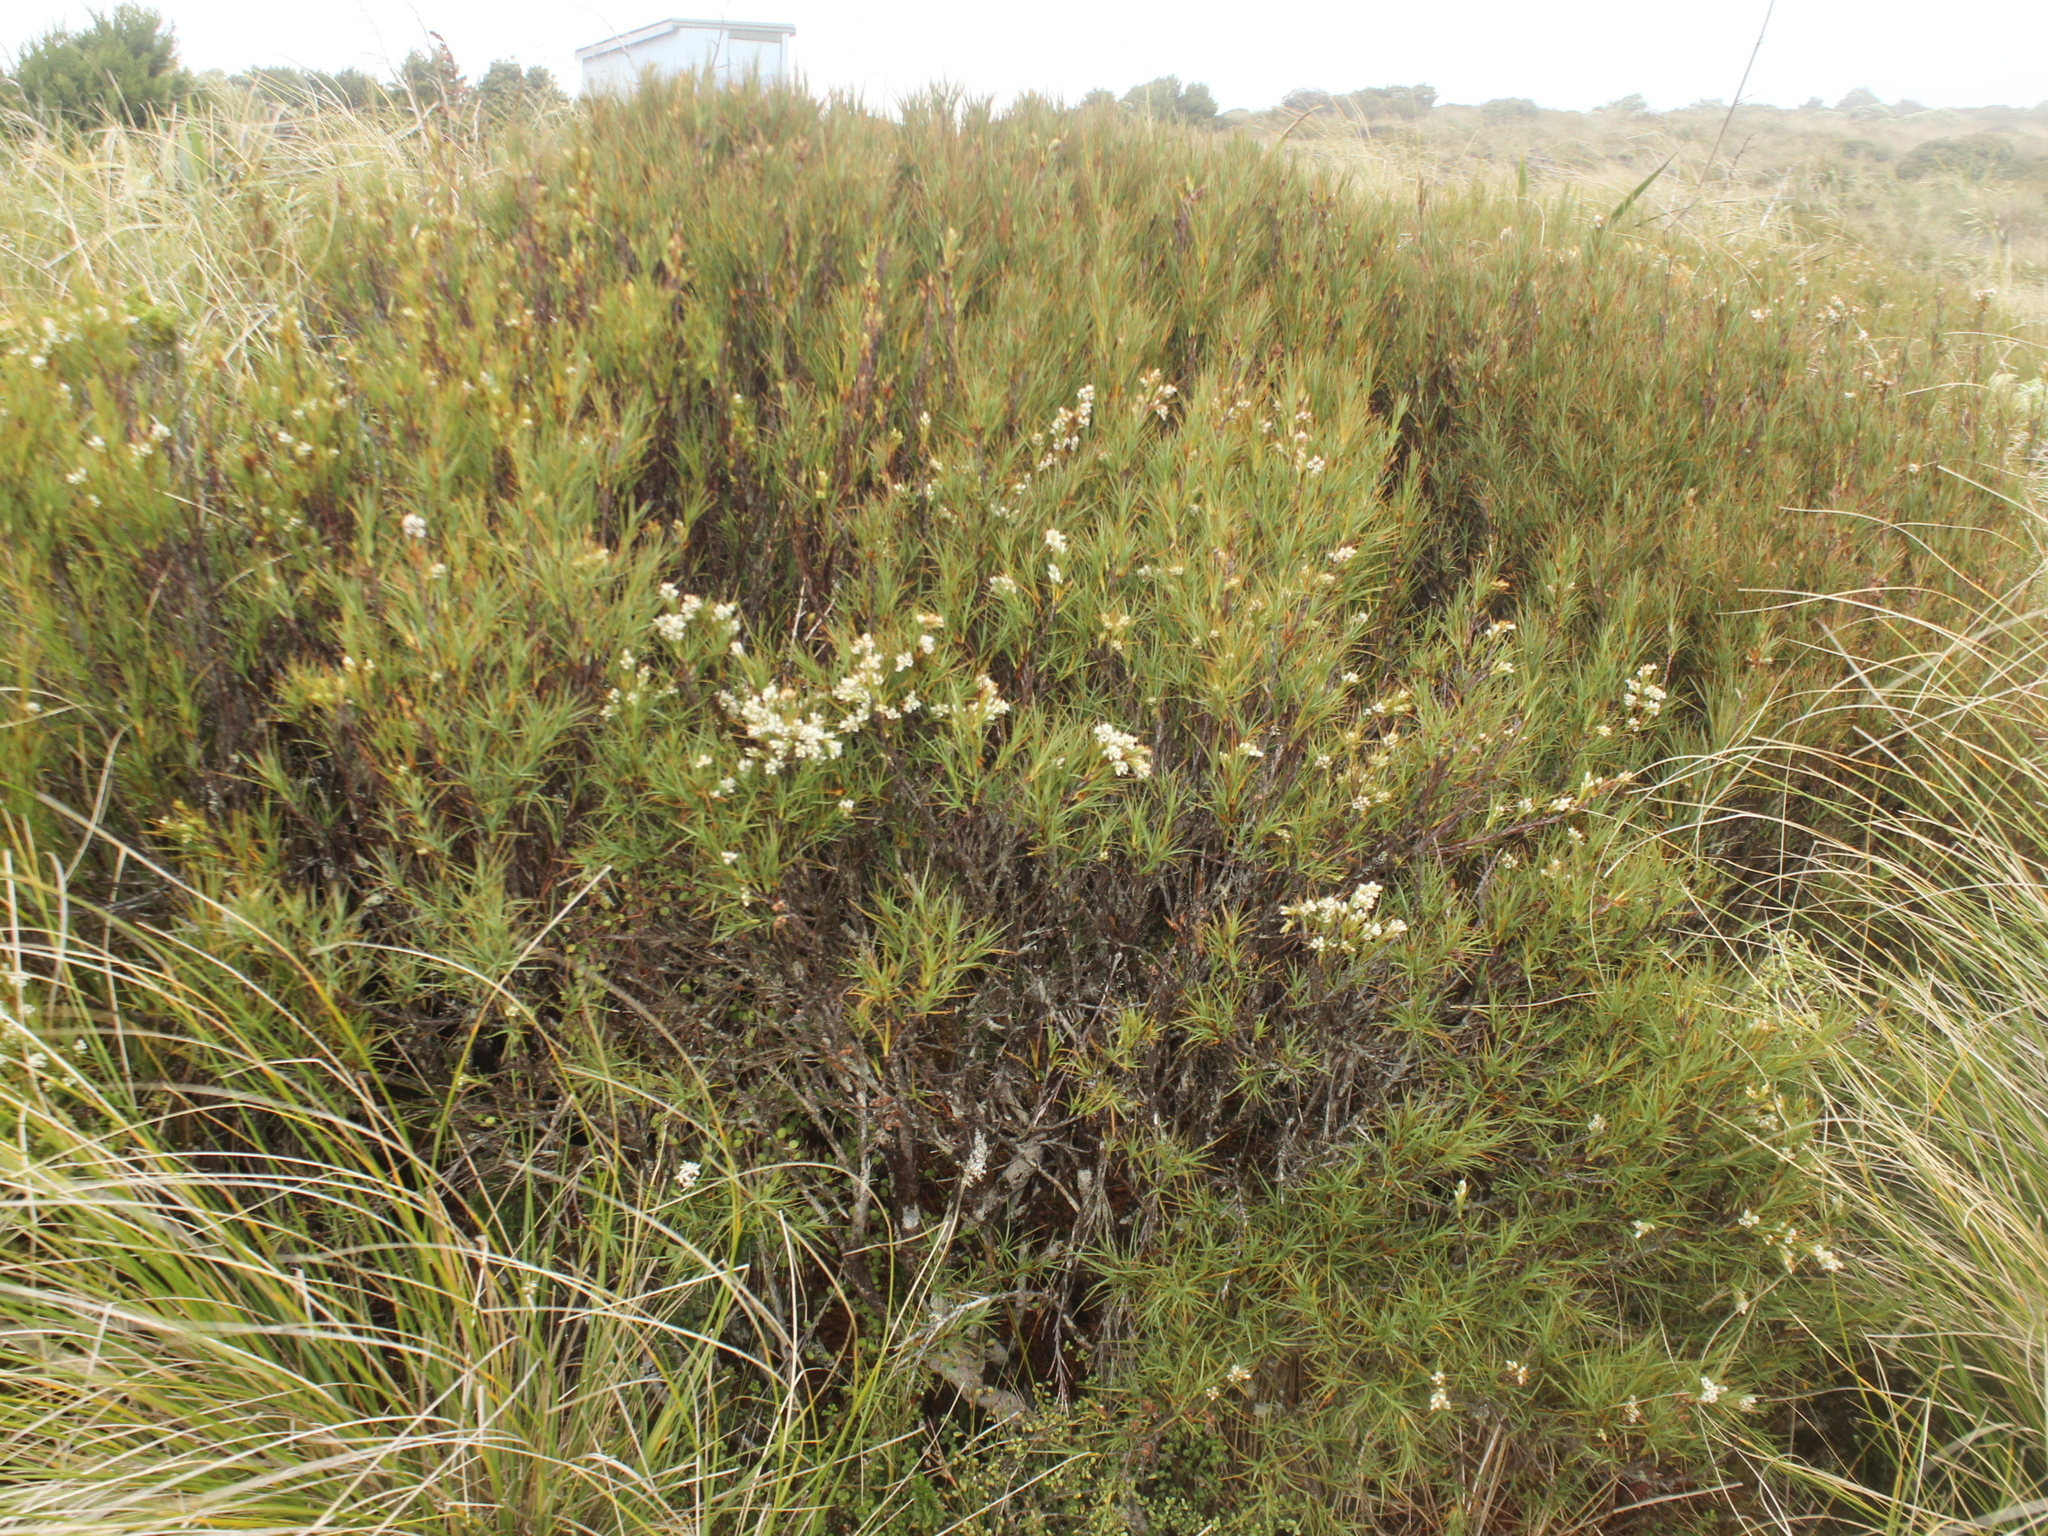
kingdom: Plantae
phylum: Tracheophyta
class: Magnoliopsida
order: Ericales
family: Ericaceae
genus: Dracophyllum
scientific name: Dracophyllum
